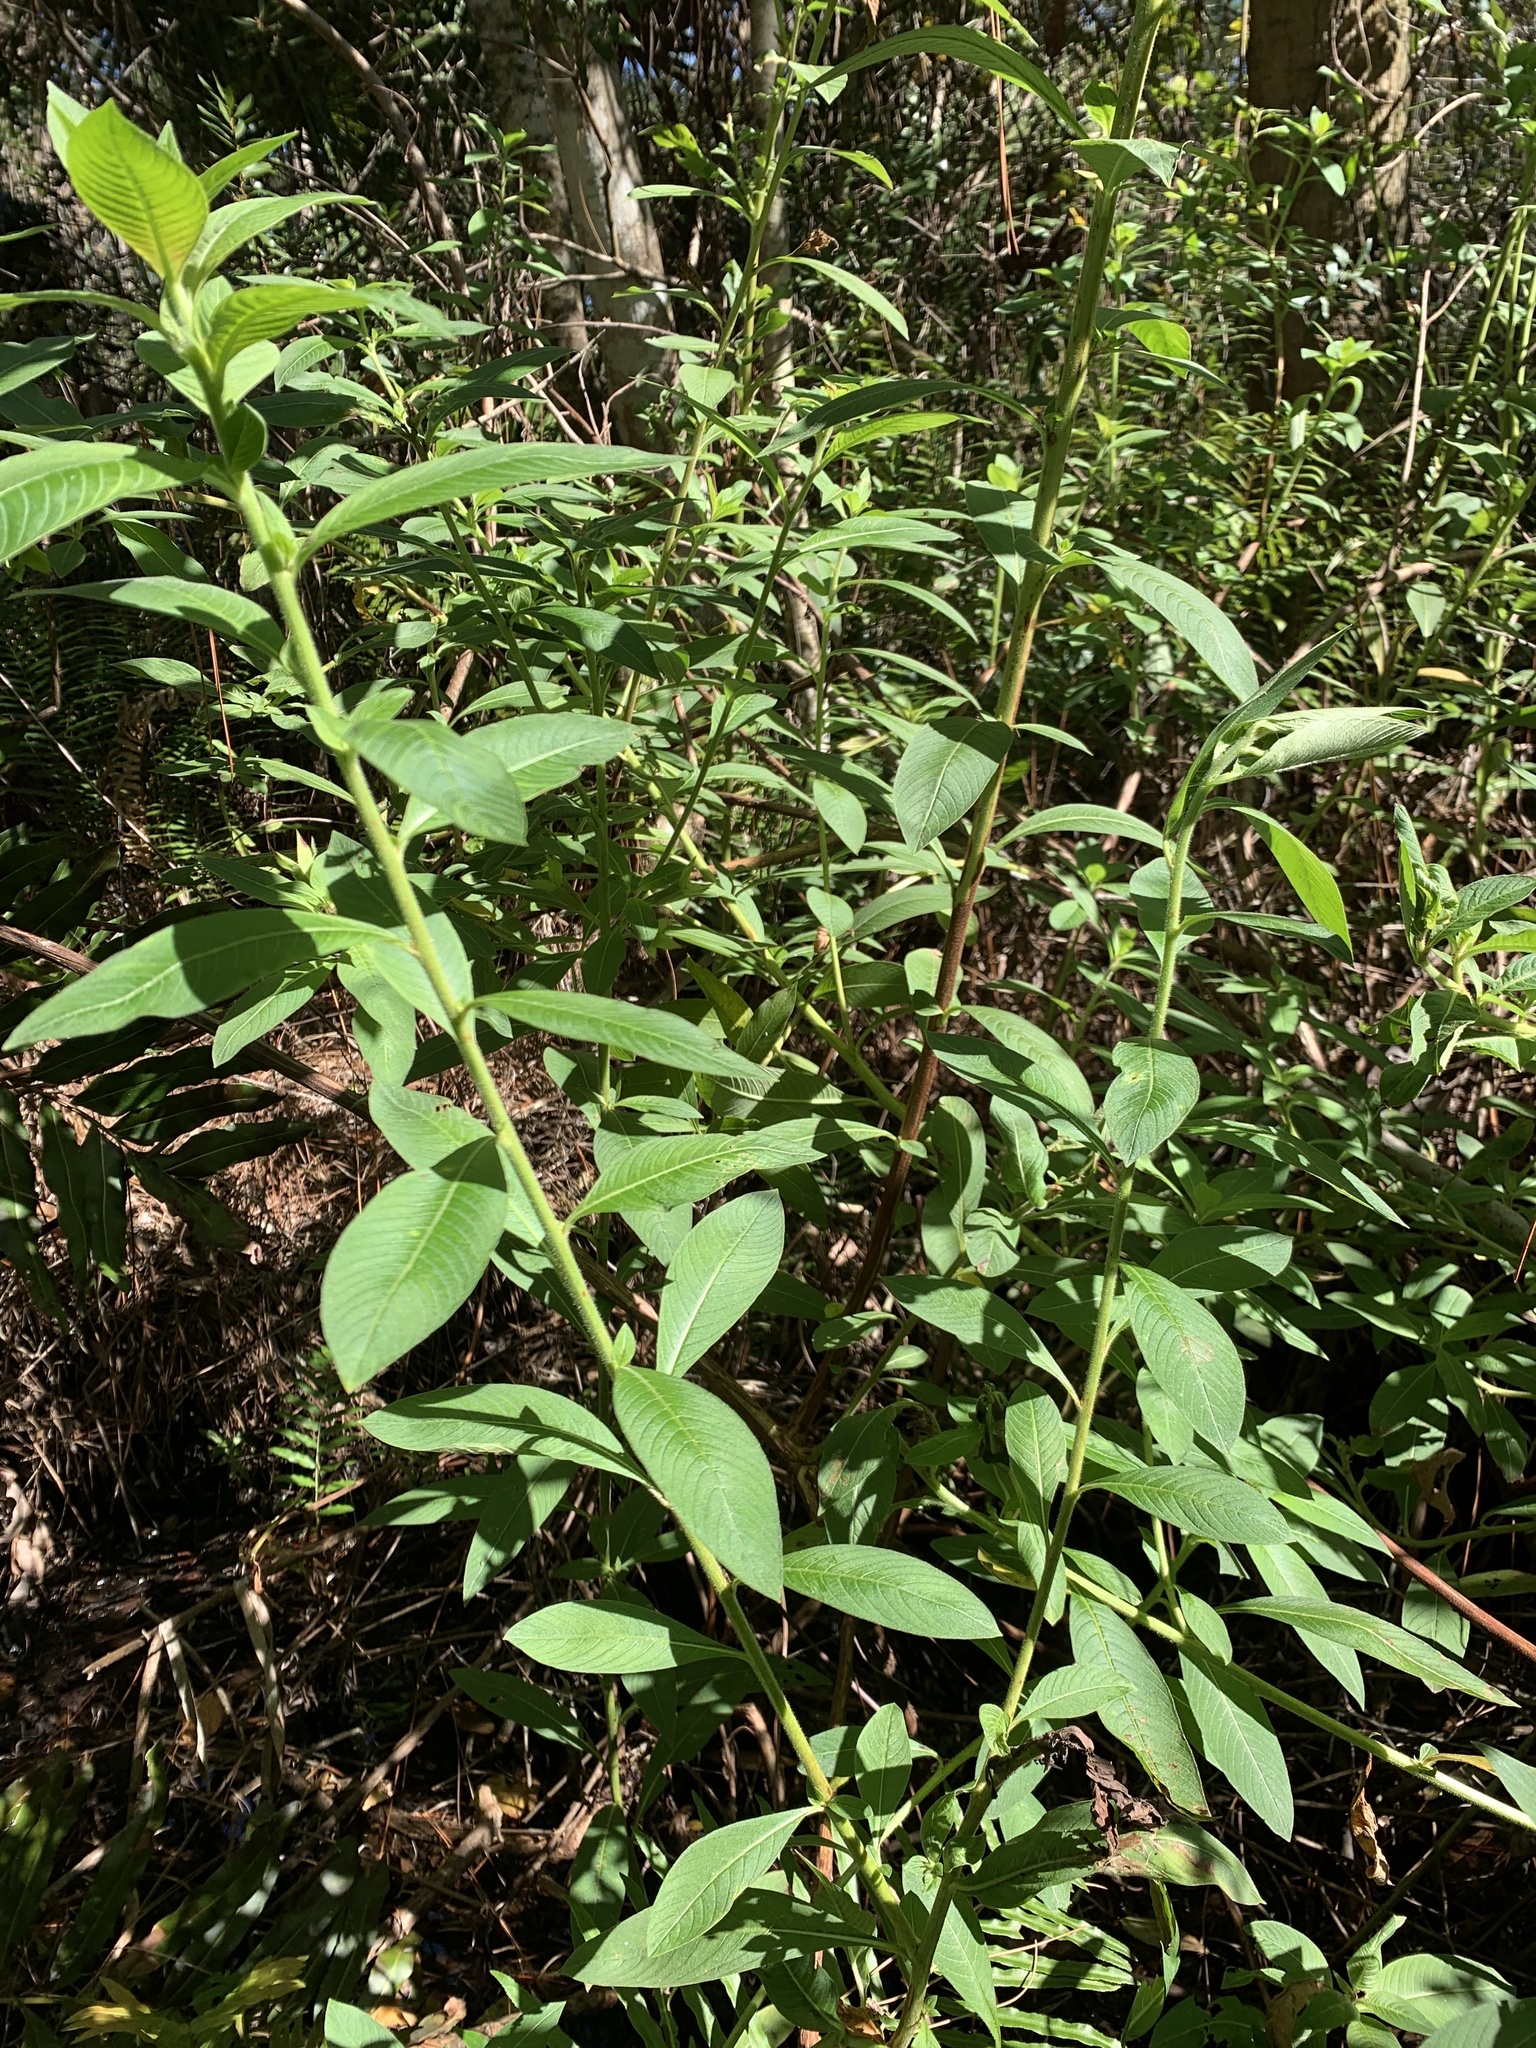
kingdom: Plantae
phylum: Tracheophyta
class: Magnoliopsida
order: Myrtales
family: Onagraceae
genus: Ludwigia
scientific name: Ludwigia peruviana
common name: Peruvian primrose-willow
